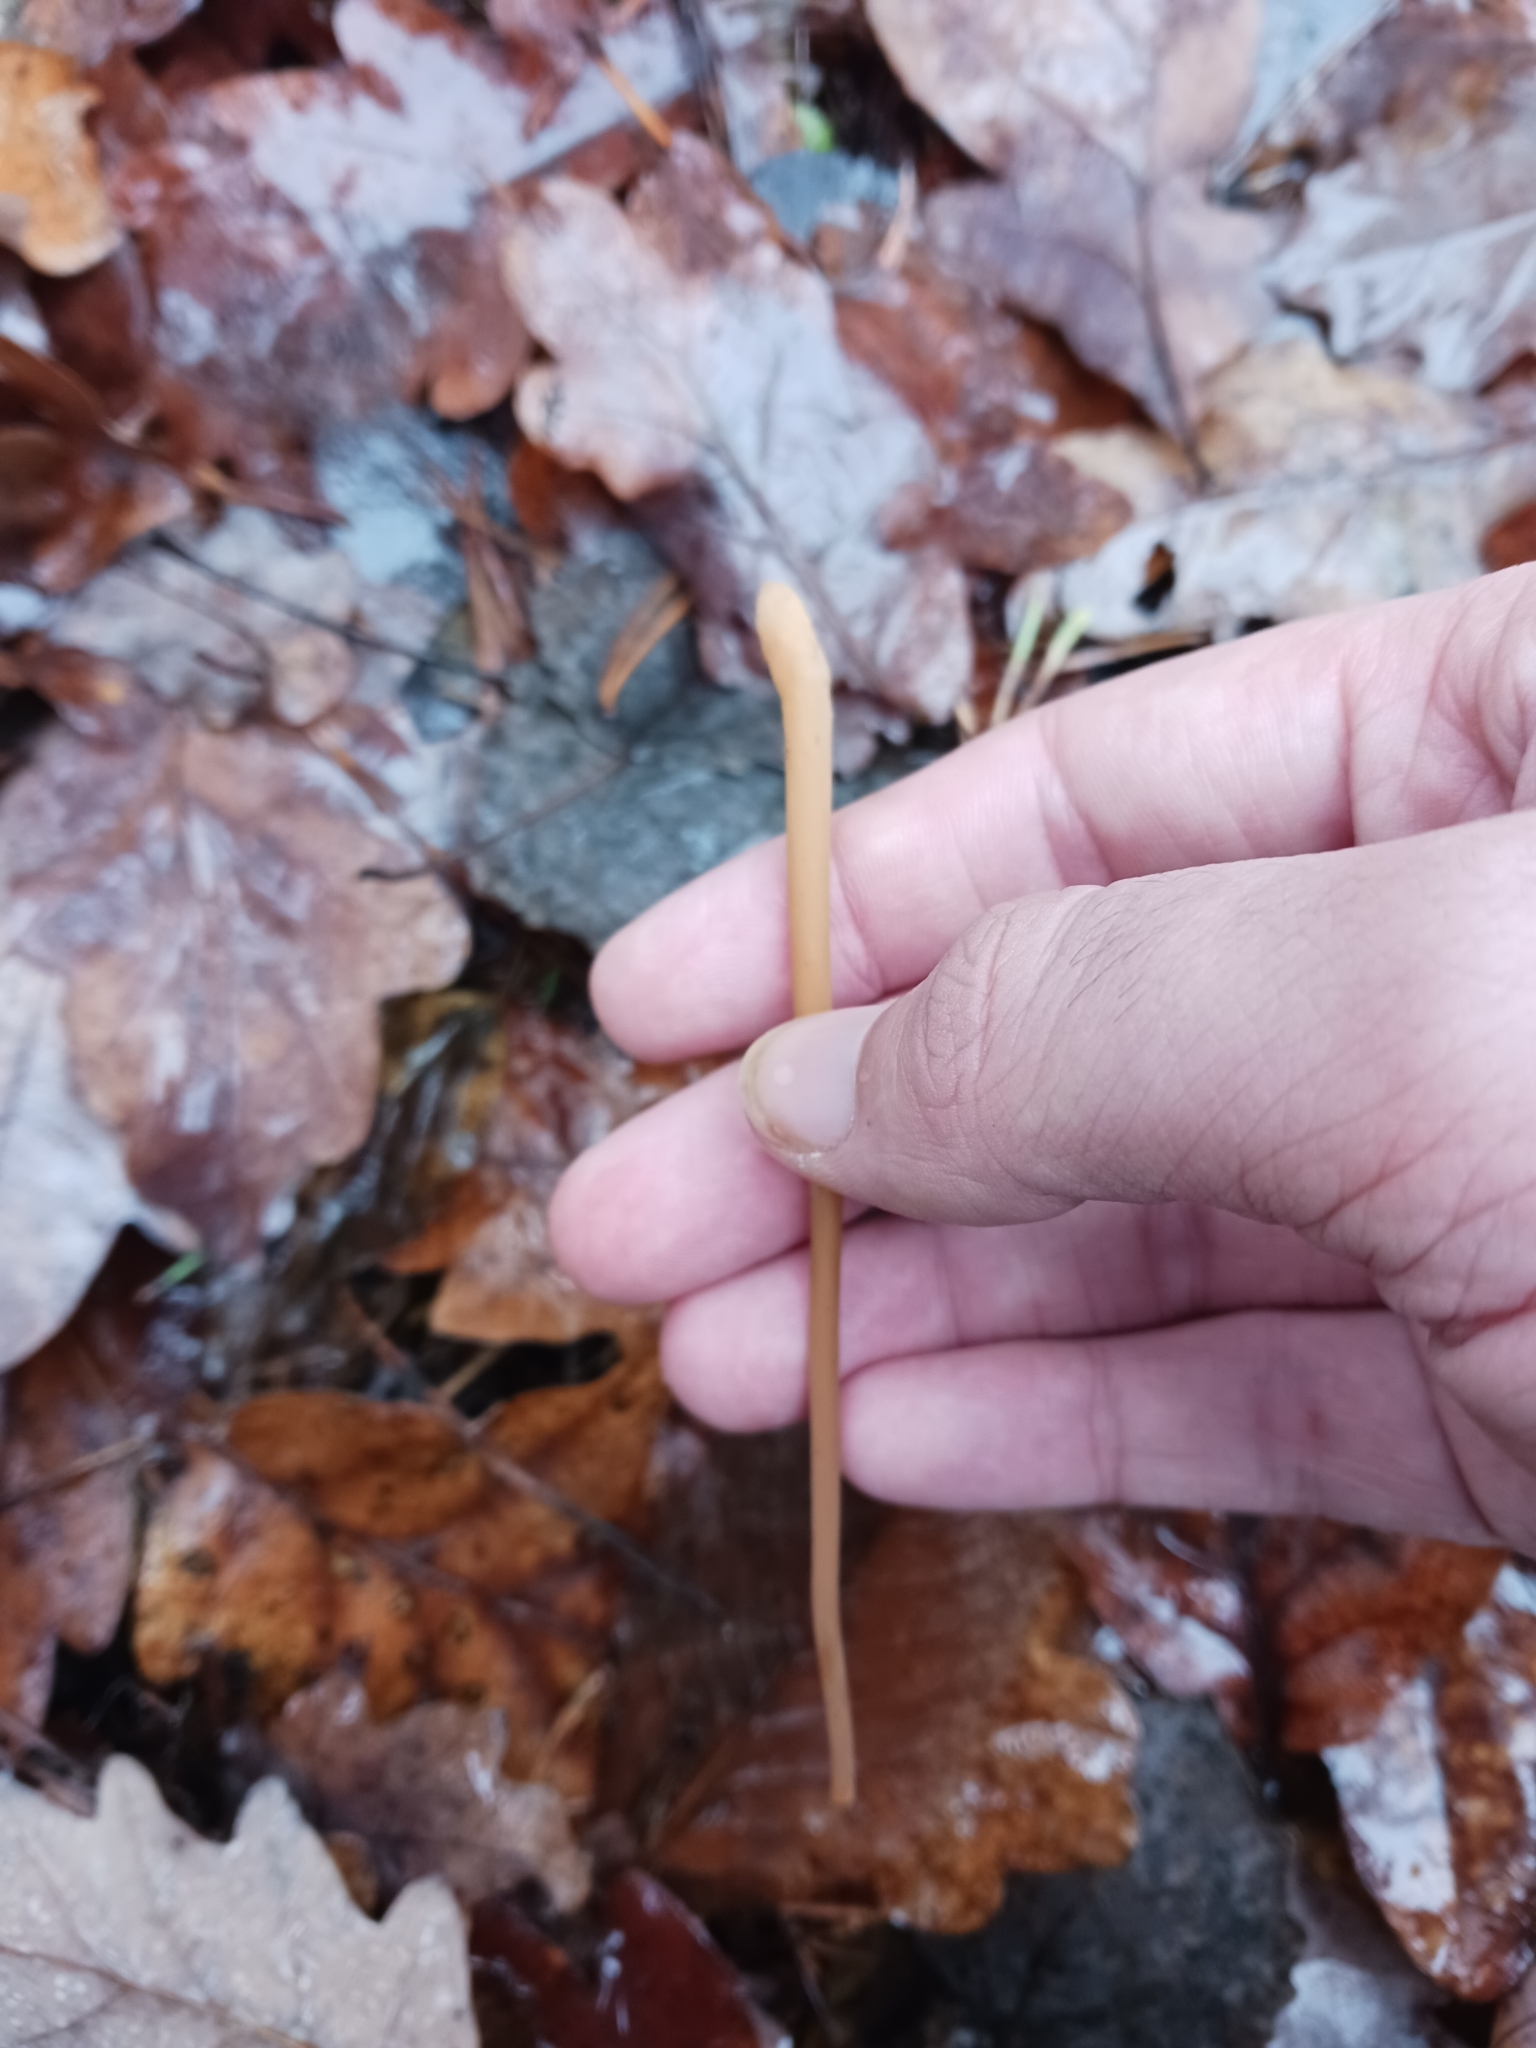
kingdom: Fungi
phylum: Basidiomycota
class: Agaricomycetes
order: Agaricales
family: Typhulaceae
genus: Typhula
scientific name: Typhula fistulosa
